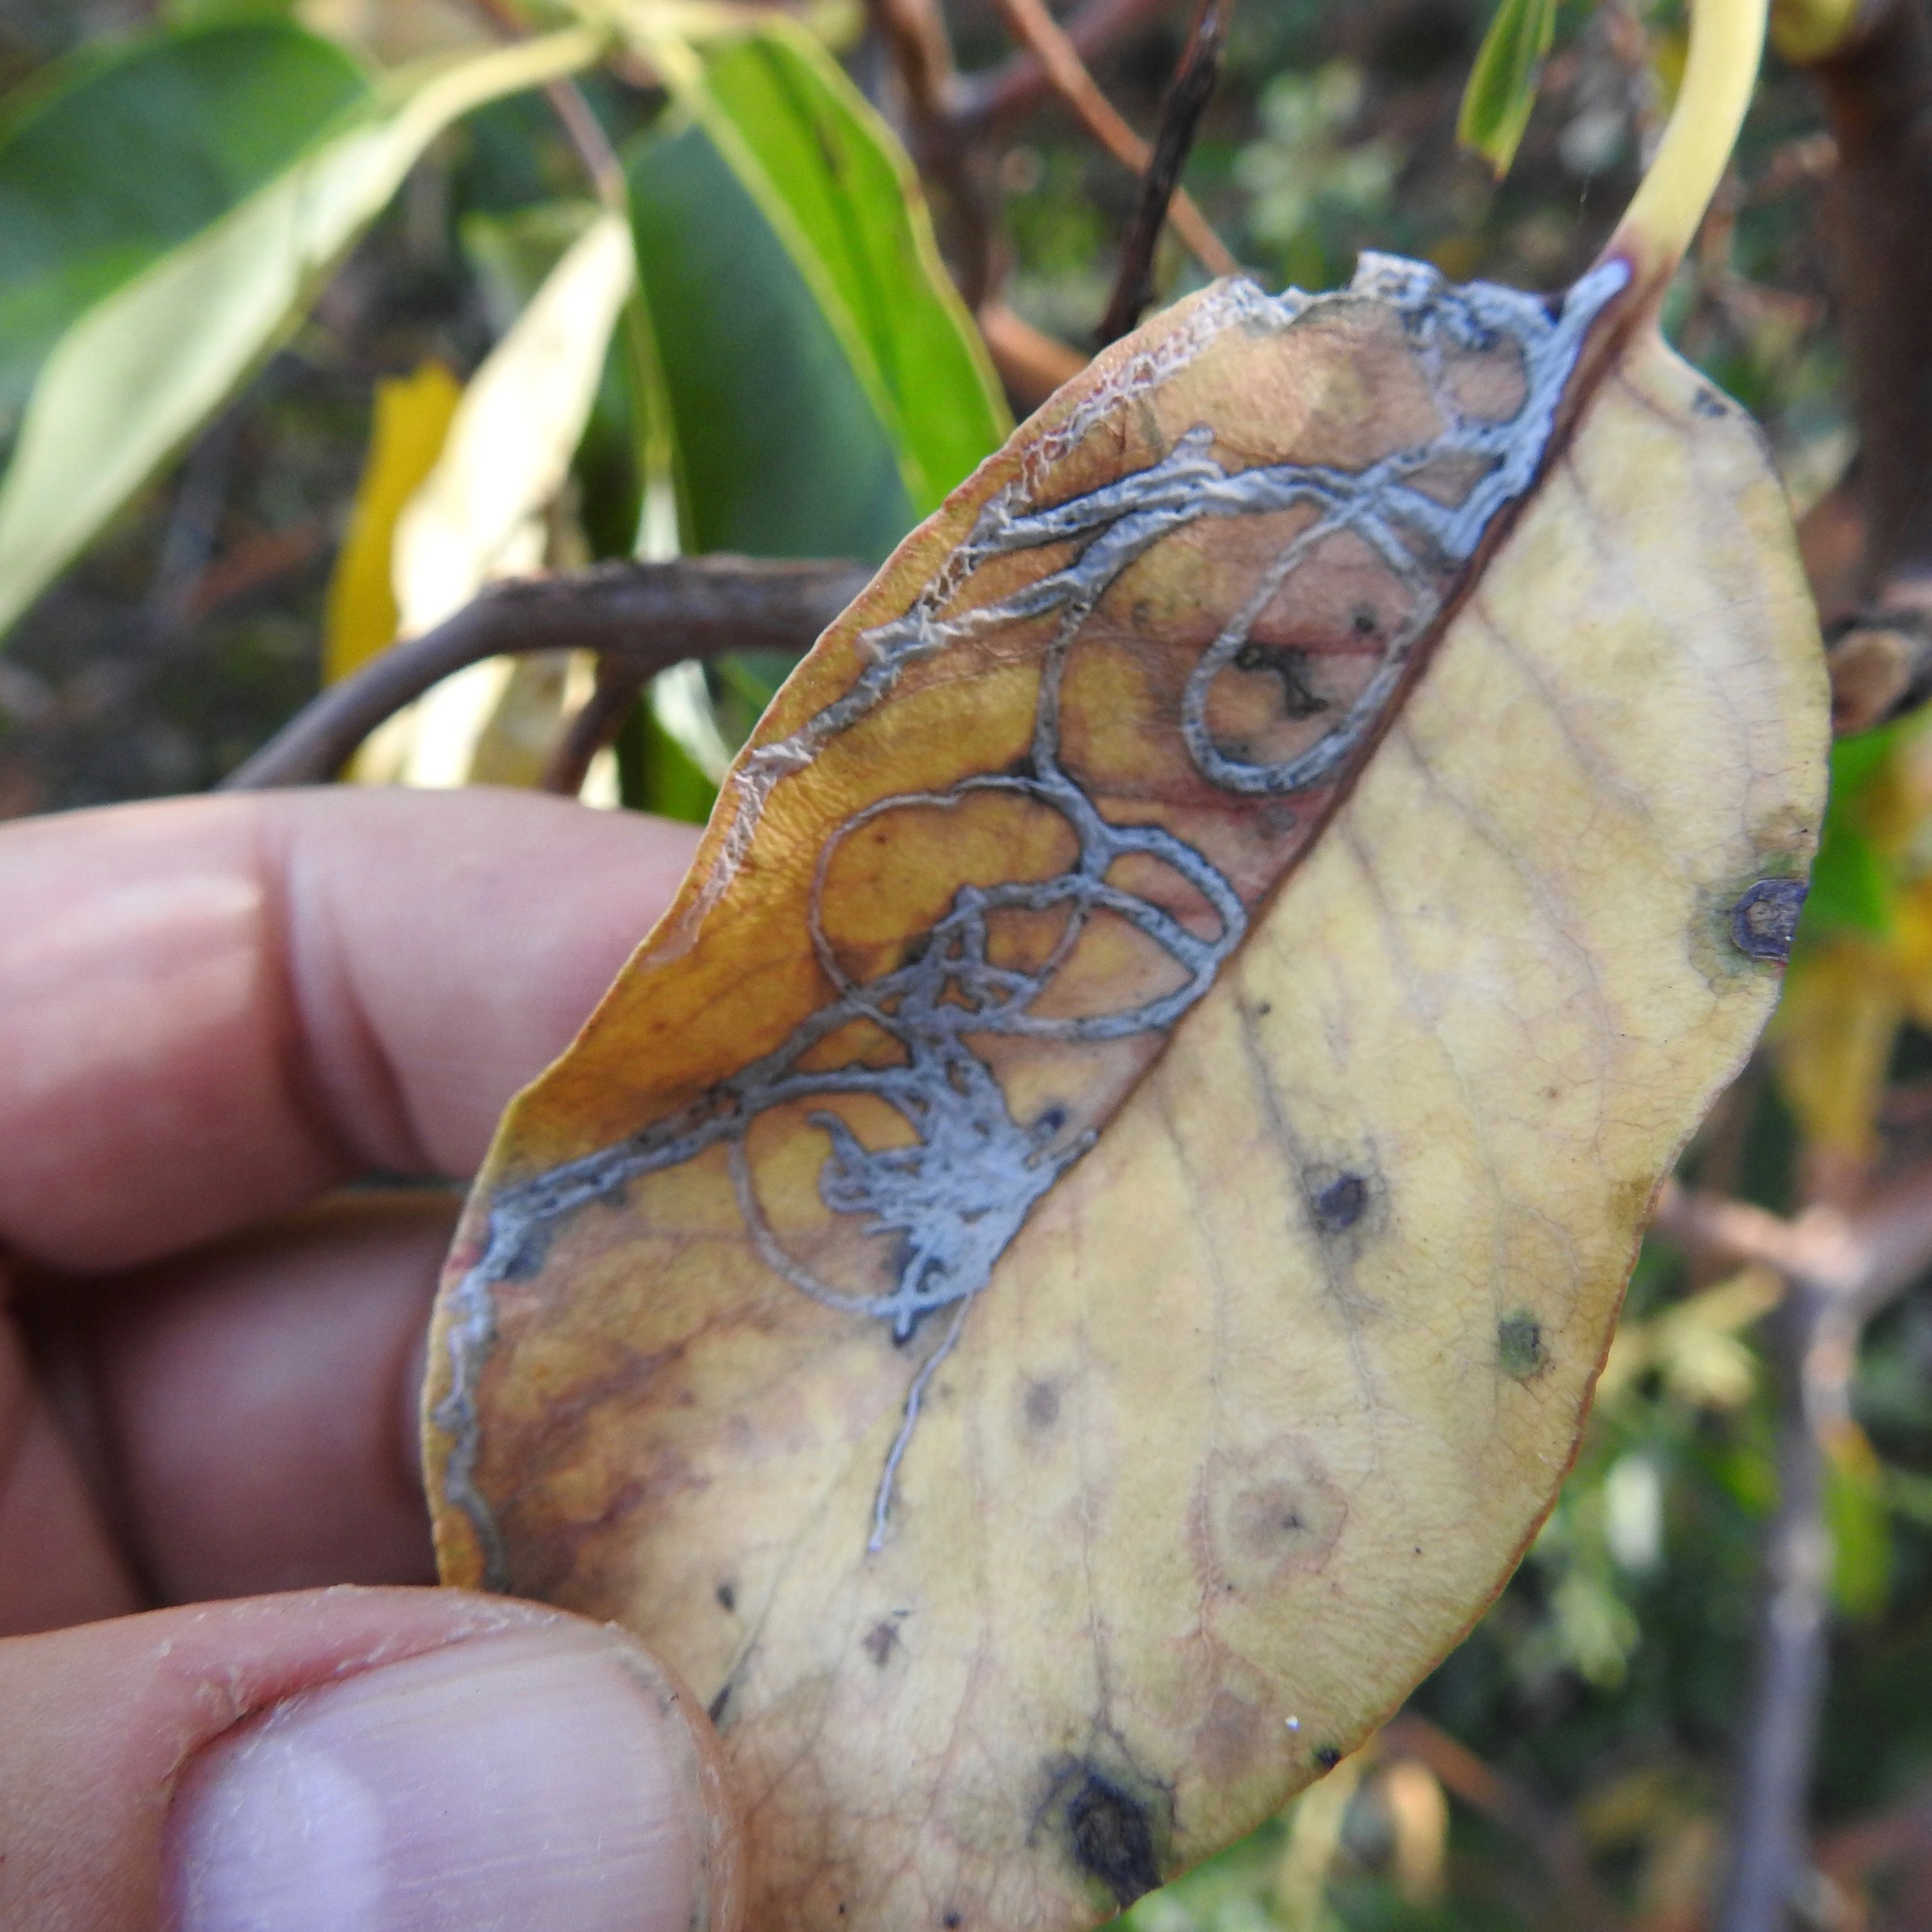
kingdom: Animalia
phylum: Arthropoda
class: Insecta
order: Lepidoptera
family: Gracillariidae
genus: Marmara
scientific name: Marmara arbutiella
